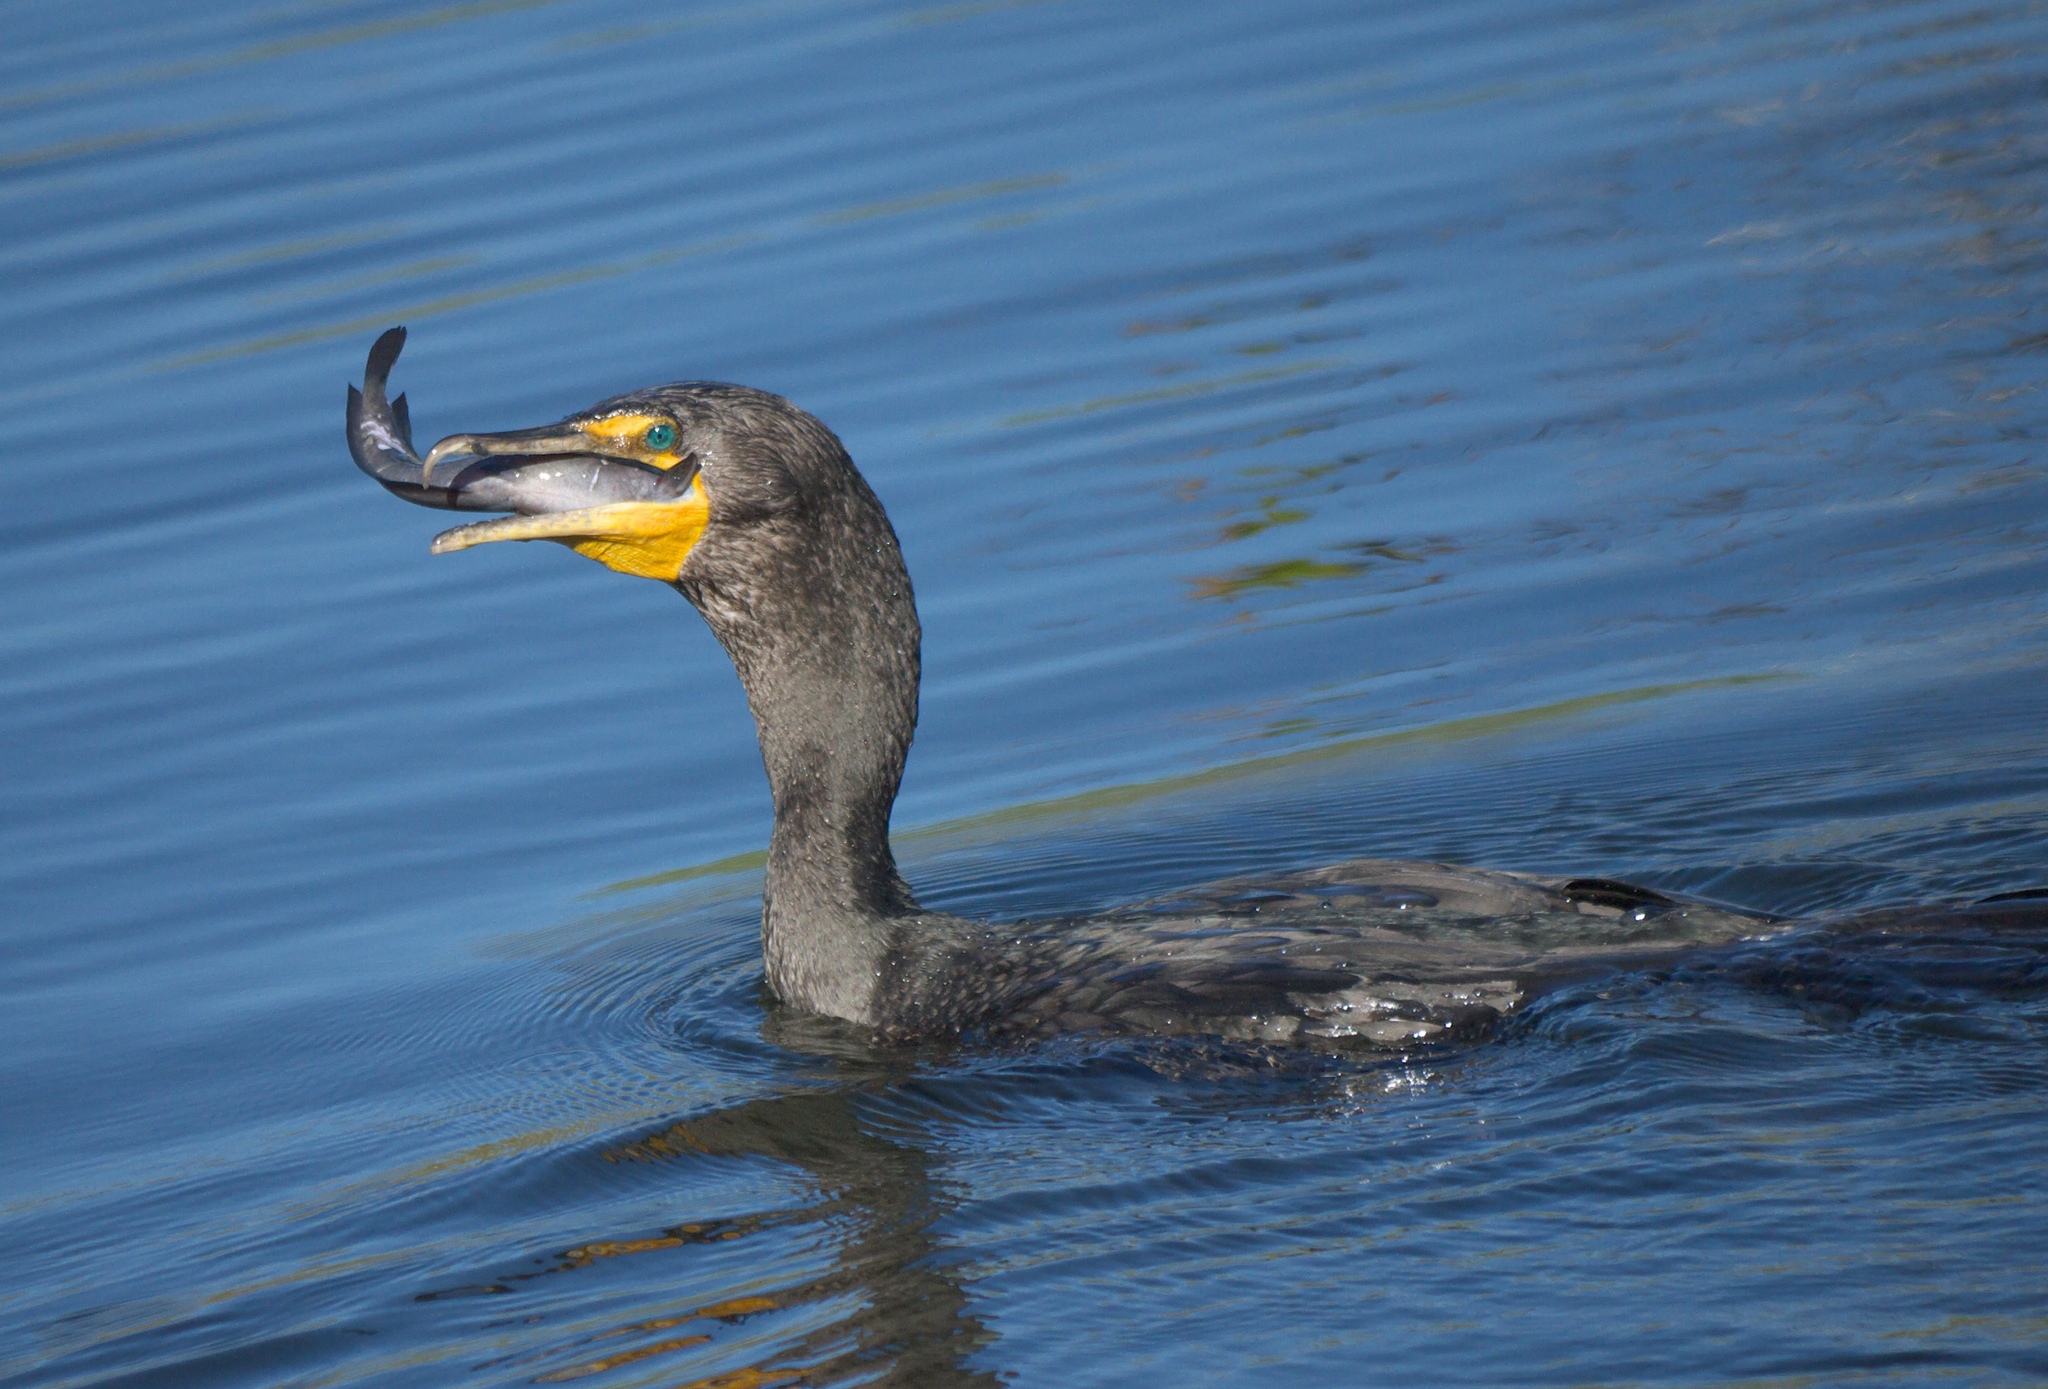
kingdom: Animalia
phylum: Chordata
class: Aves
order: Suliformes
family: Phalacrocoracidae
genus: Phalacrocorax
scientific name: Phalacrocorax auritus
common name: Double-crested cormorant
